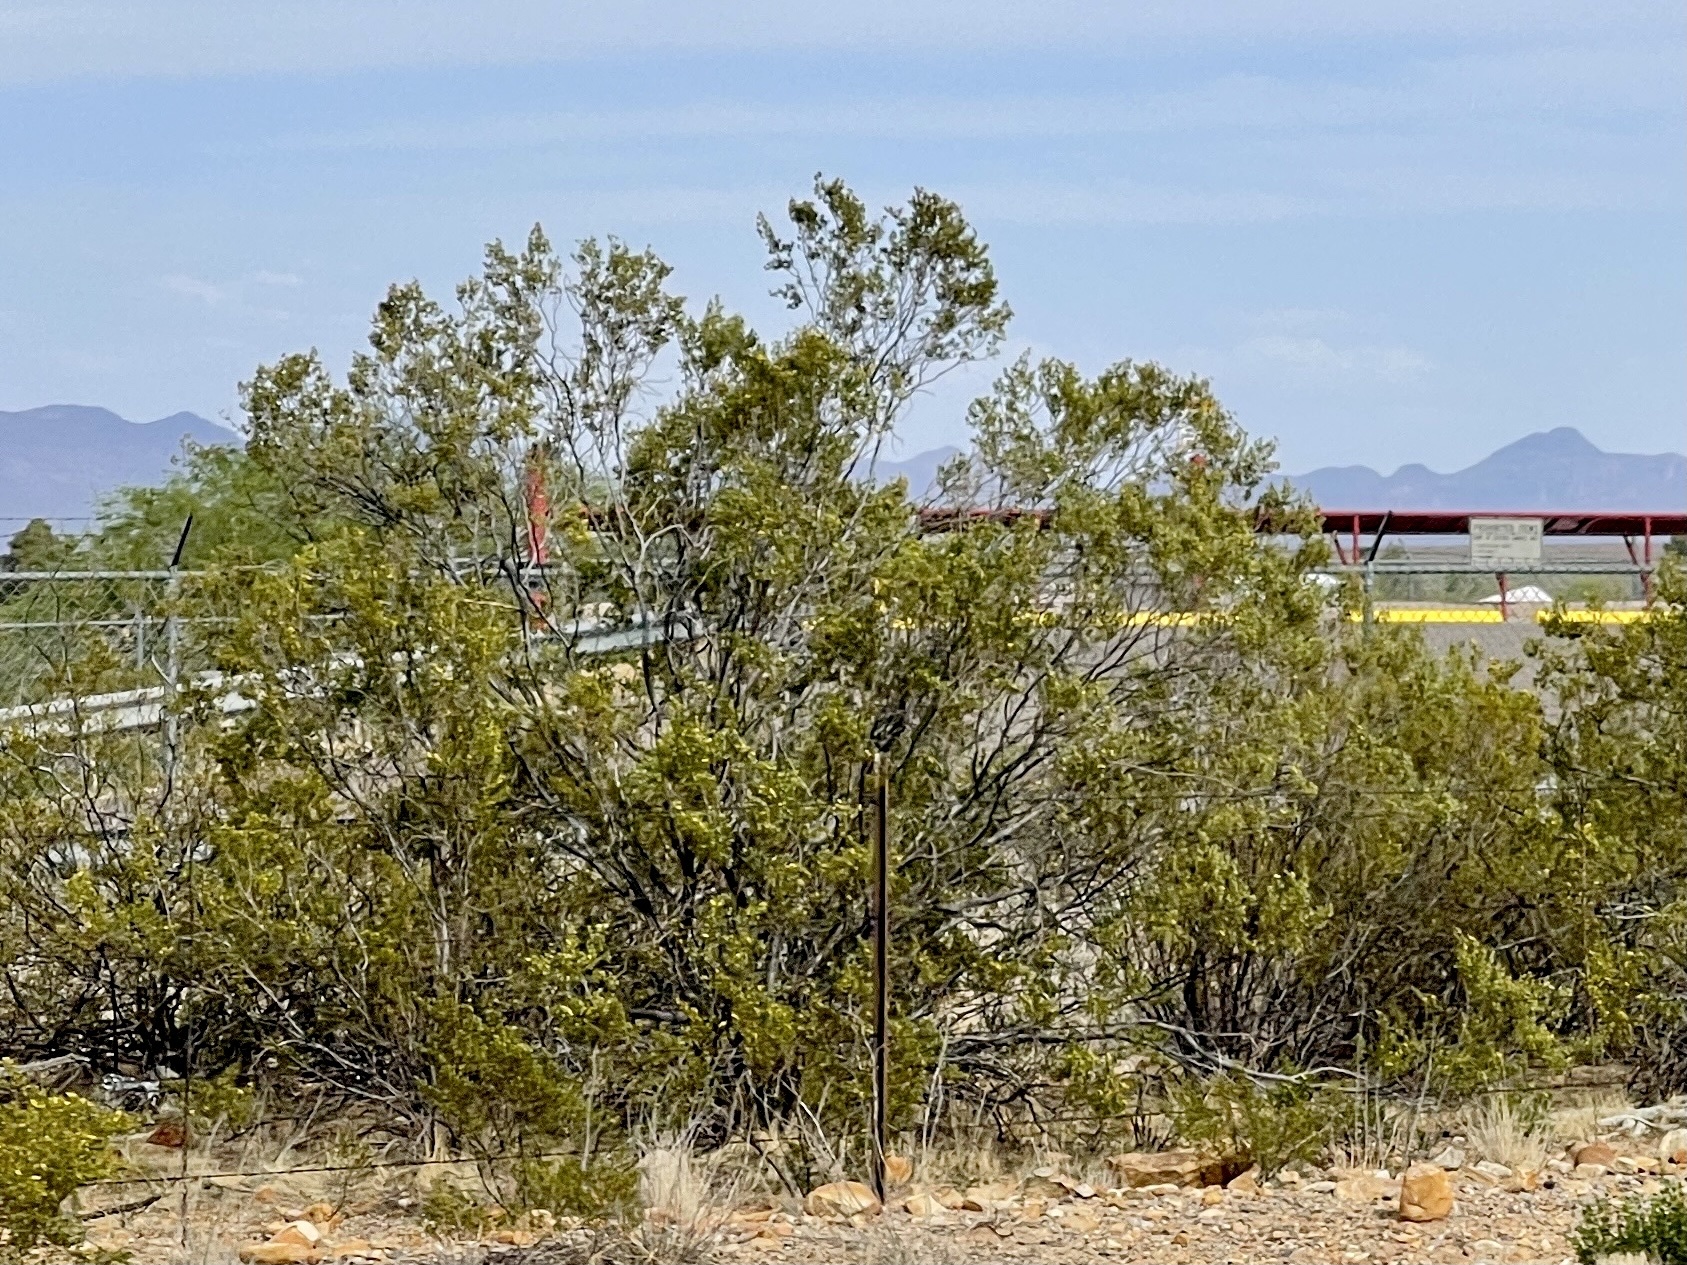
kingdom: Plantae
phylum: Tracheophyta
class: Magnoliopsida
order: Zygophyllales
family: Zygophyllaceae
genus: Larrea
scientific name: Larrea tridentata
